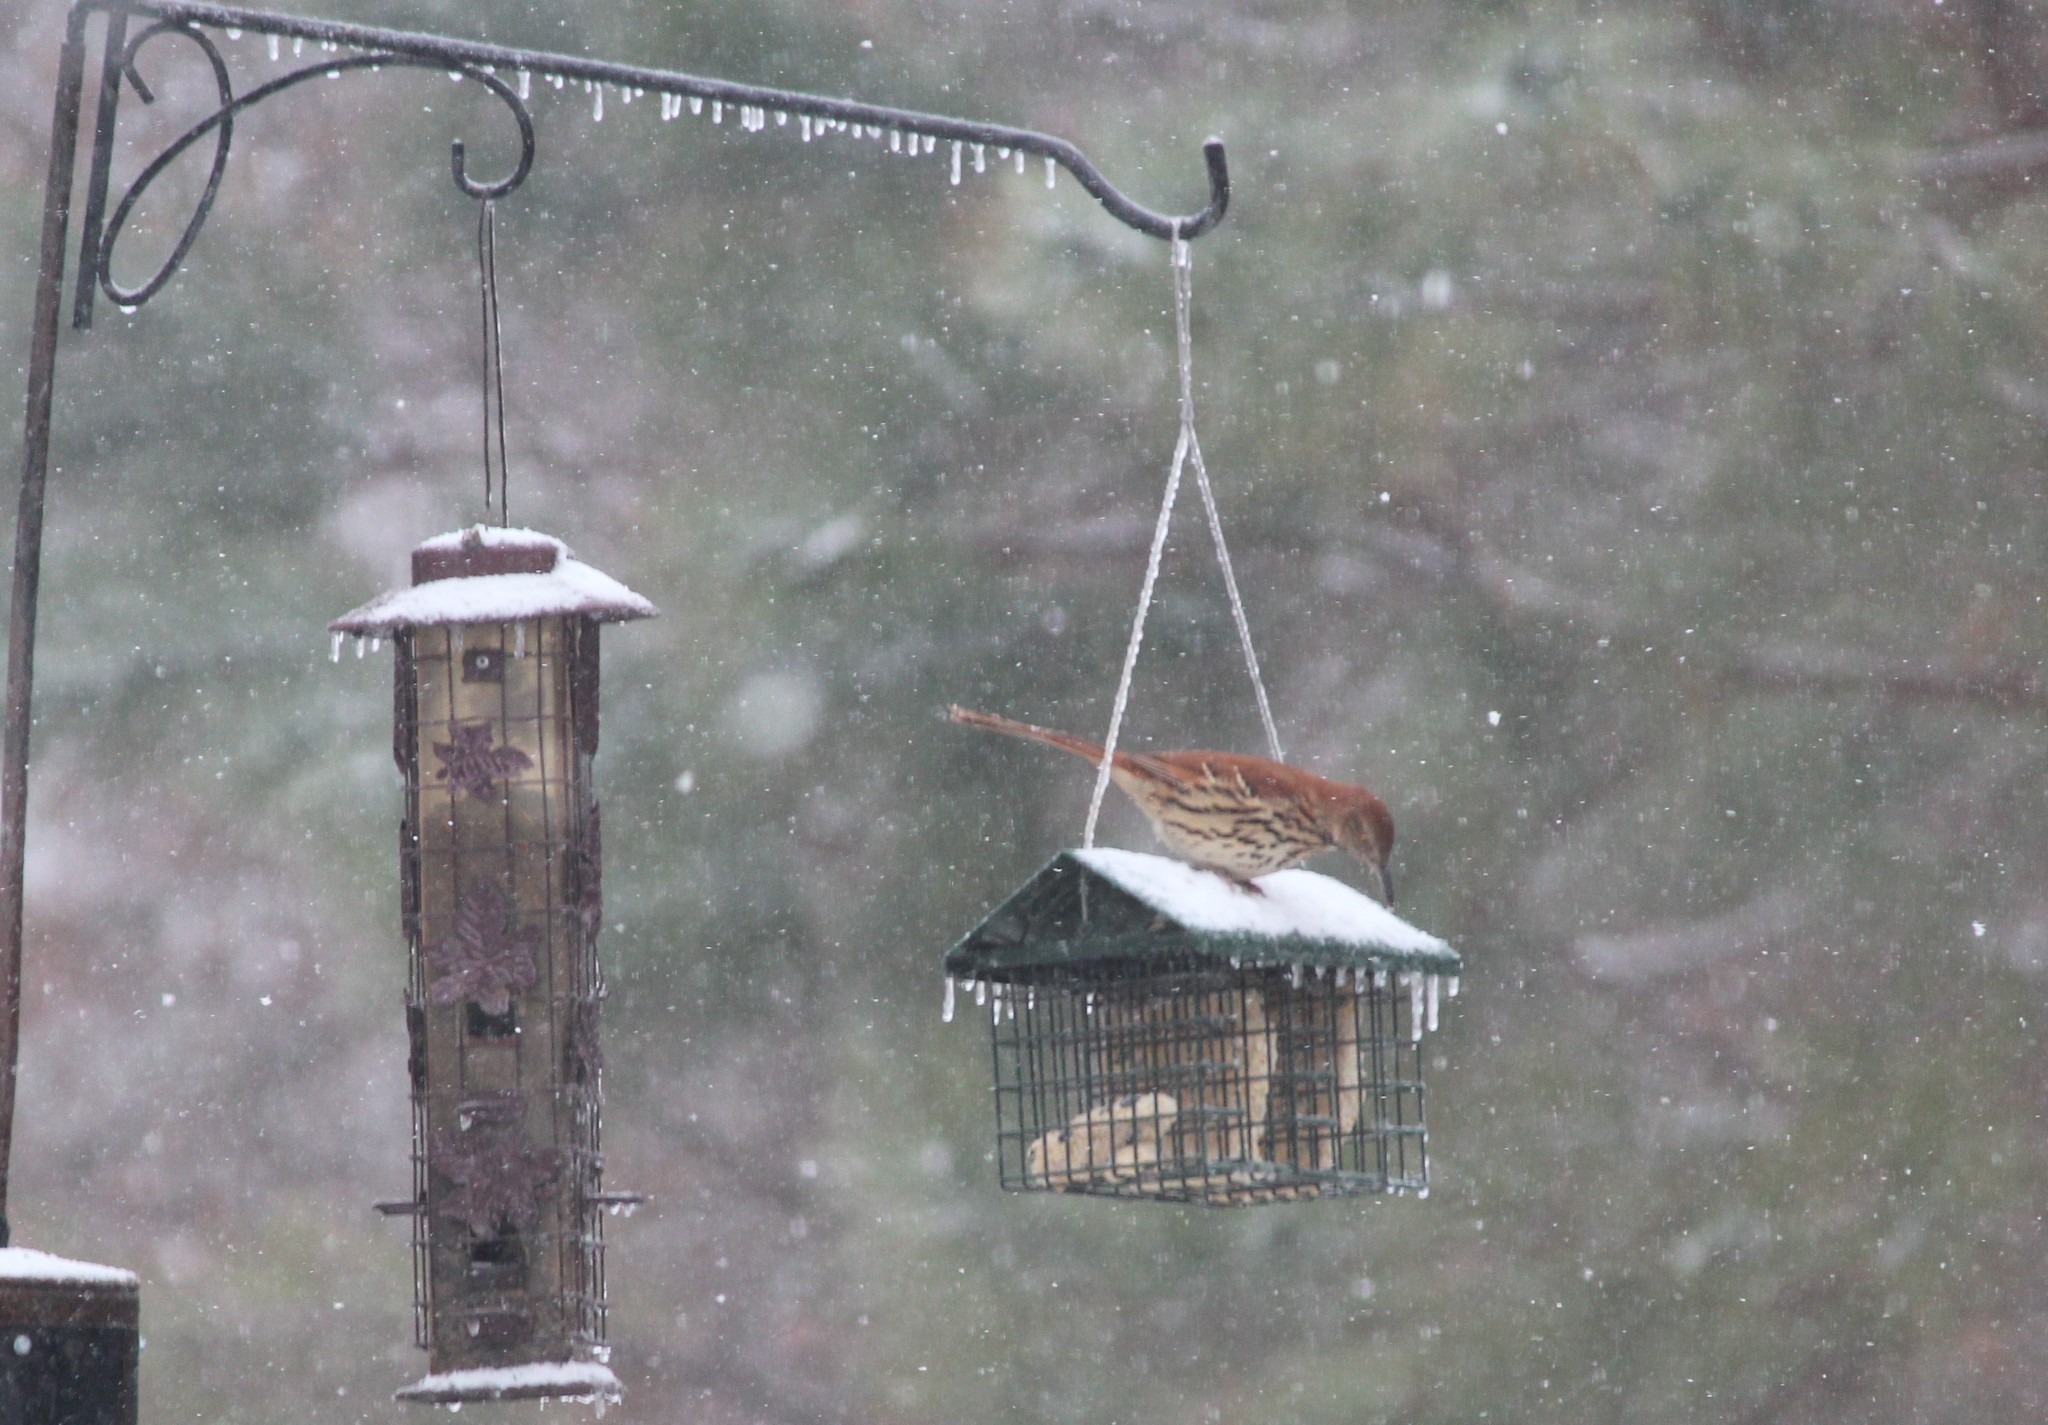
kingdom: Animalia
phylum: Chordata
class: Aves
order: Passeriformes
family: Mimidae
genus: Toxostoma
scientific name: Toxostoma rufum
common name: Brown thrasher
